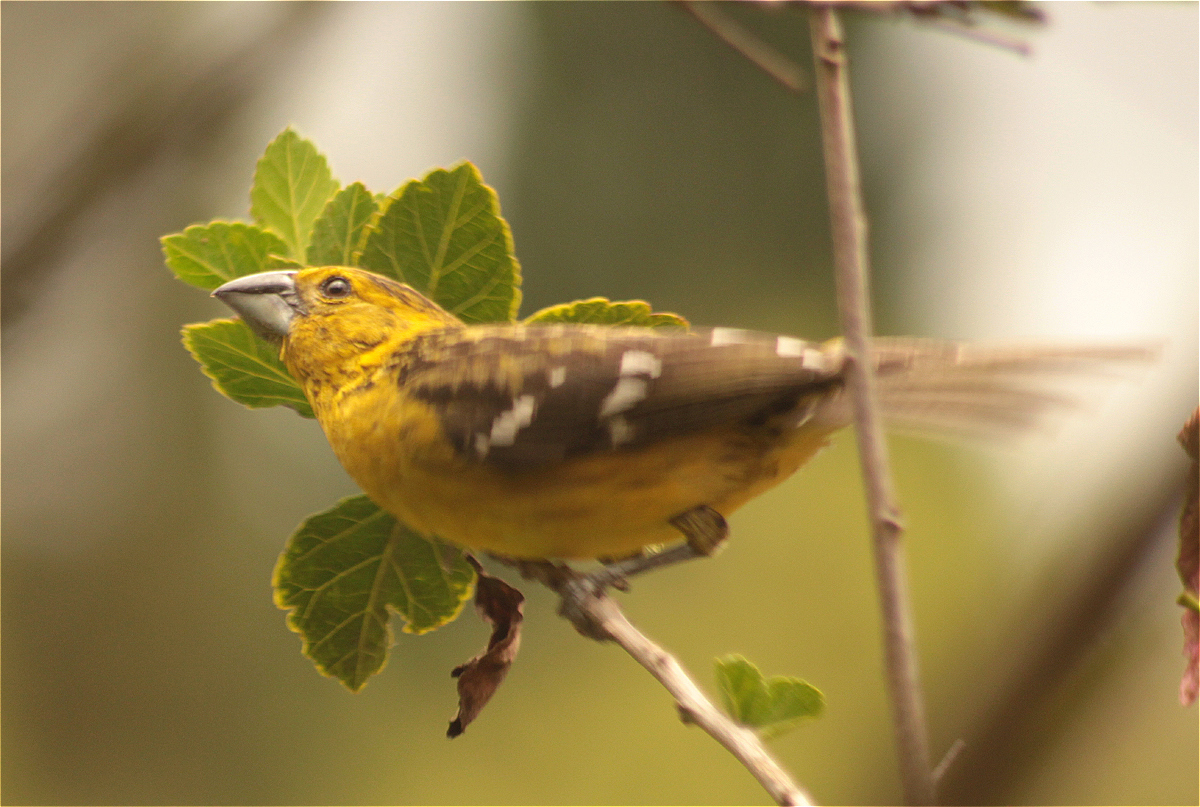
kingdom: Animalia
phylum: Chordata
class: Aves
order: Passeriformes
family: Cardinalidae
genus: Pheucticus
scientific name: Pheucticus chrysogaster
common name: Golden grosbeak
